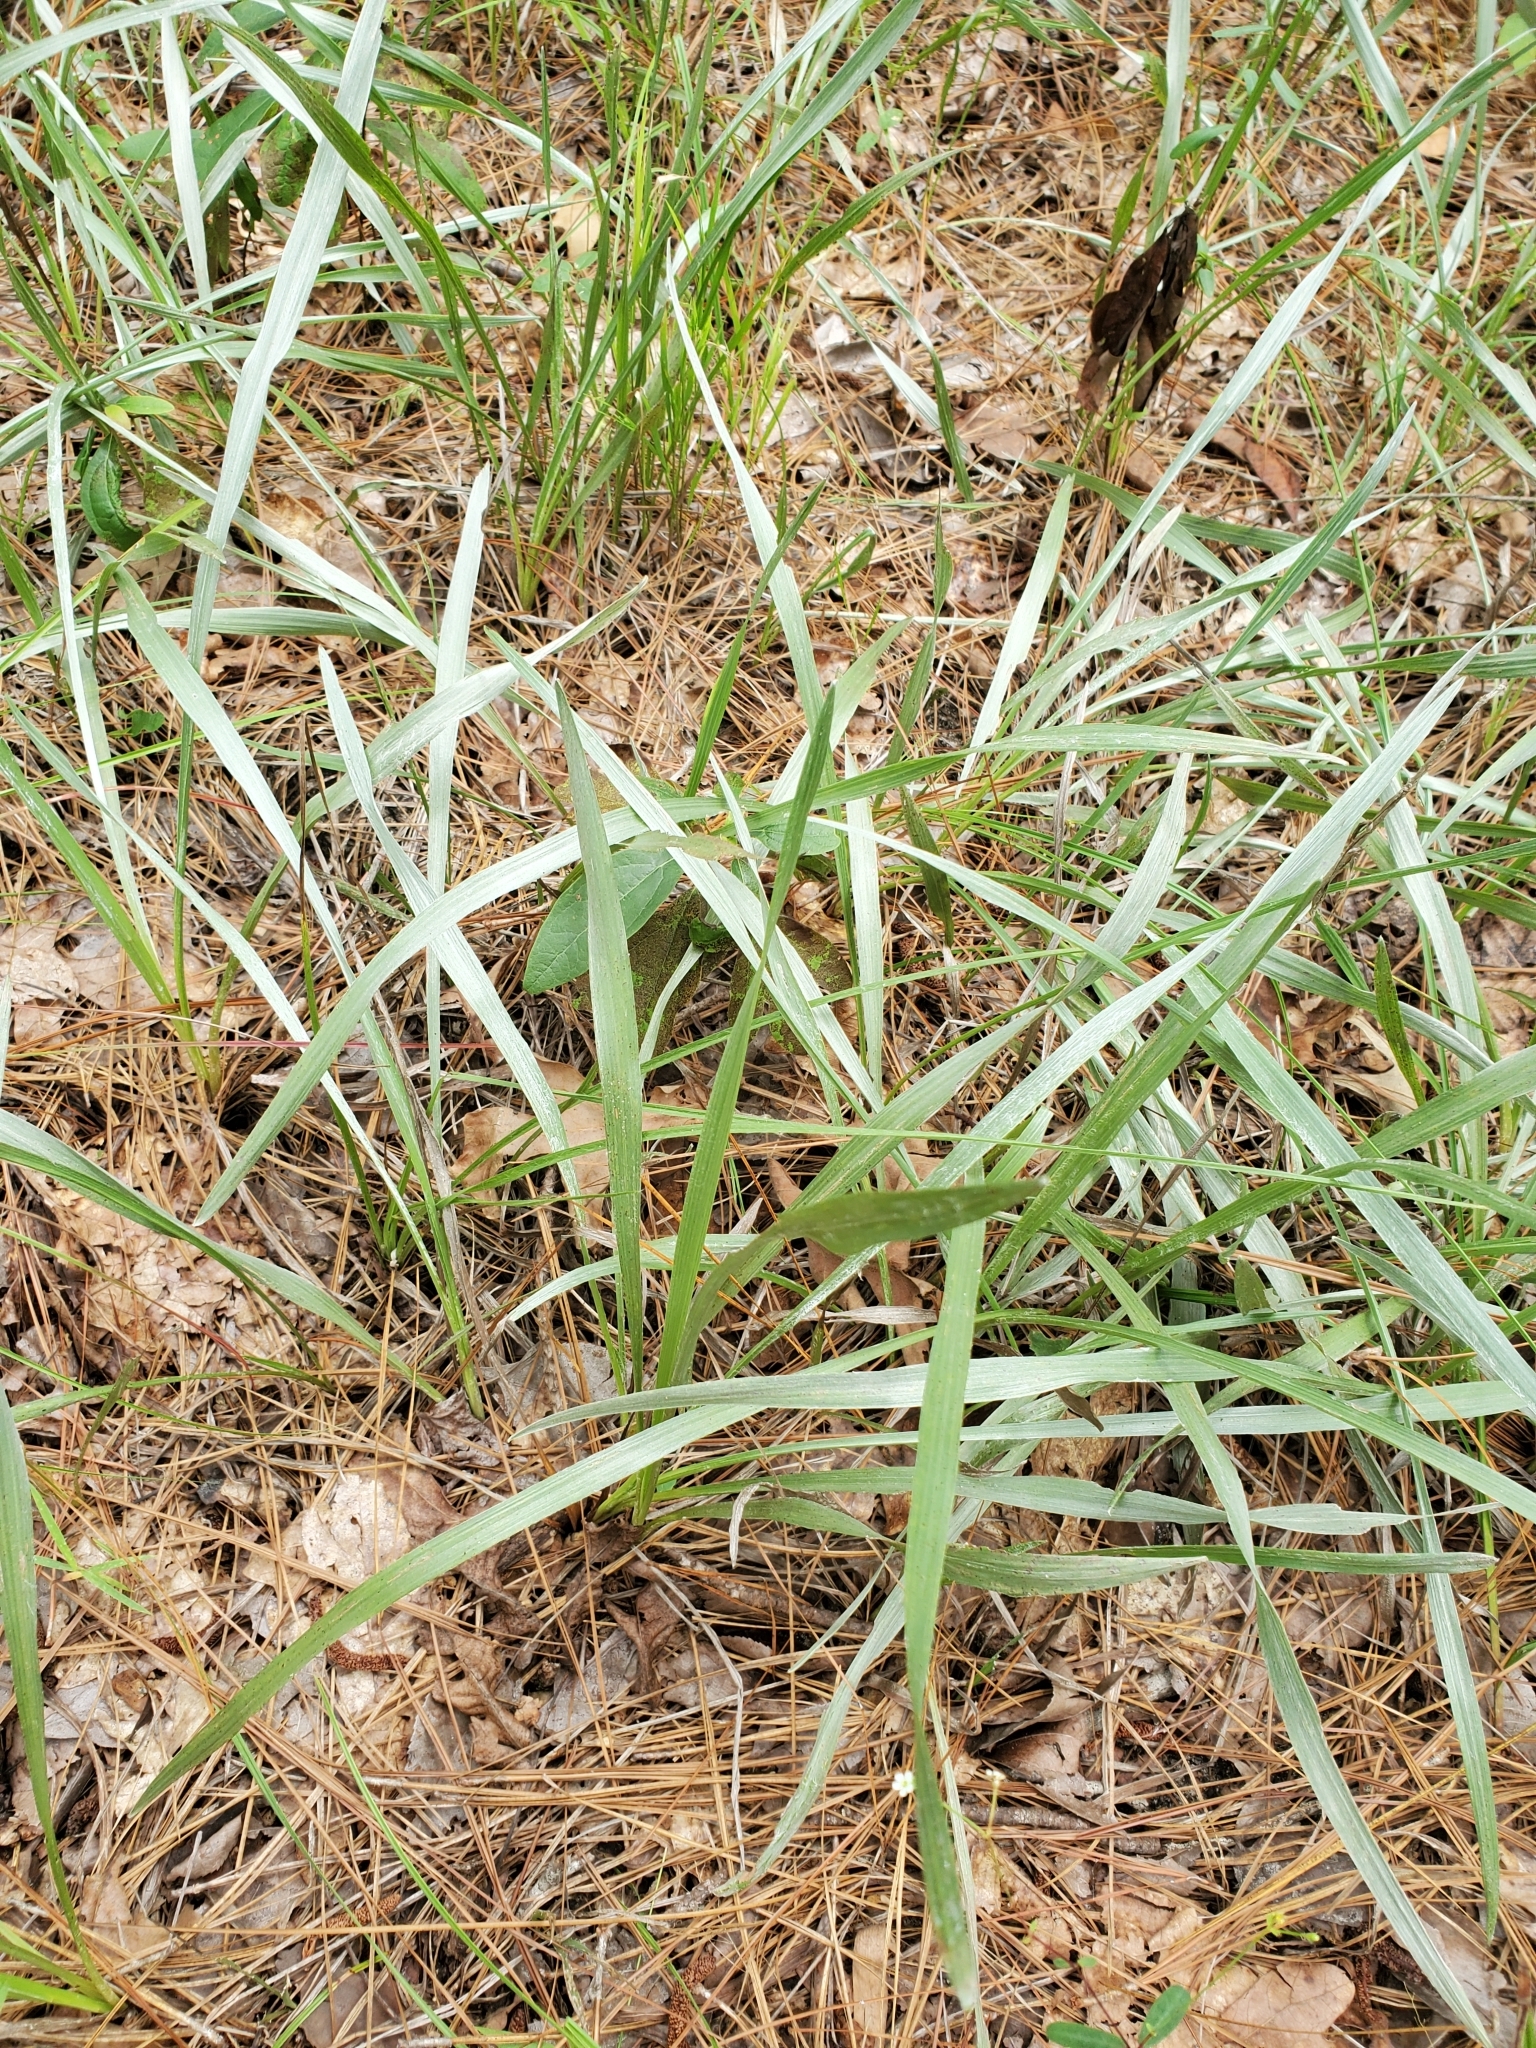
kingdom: Plantae
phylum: Tracheophyta
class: Magnoliopsida
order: Asterales
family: Asteraceae
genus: Pityopsis
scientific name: Pityopsis graminifolia
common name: Grass-leaf golden-aster
